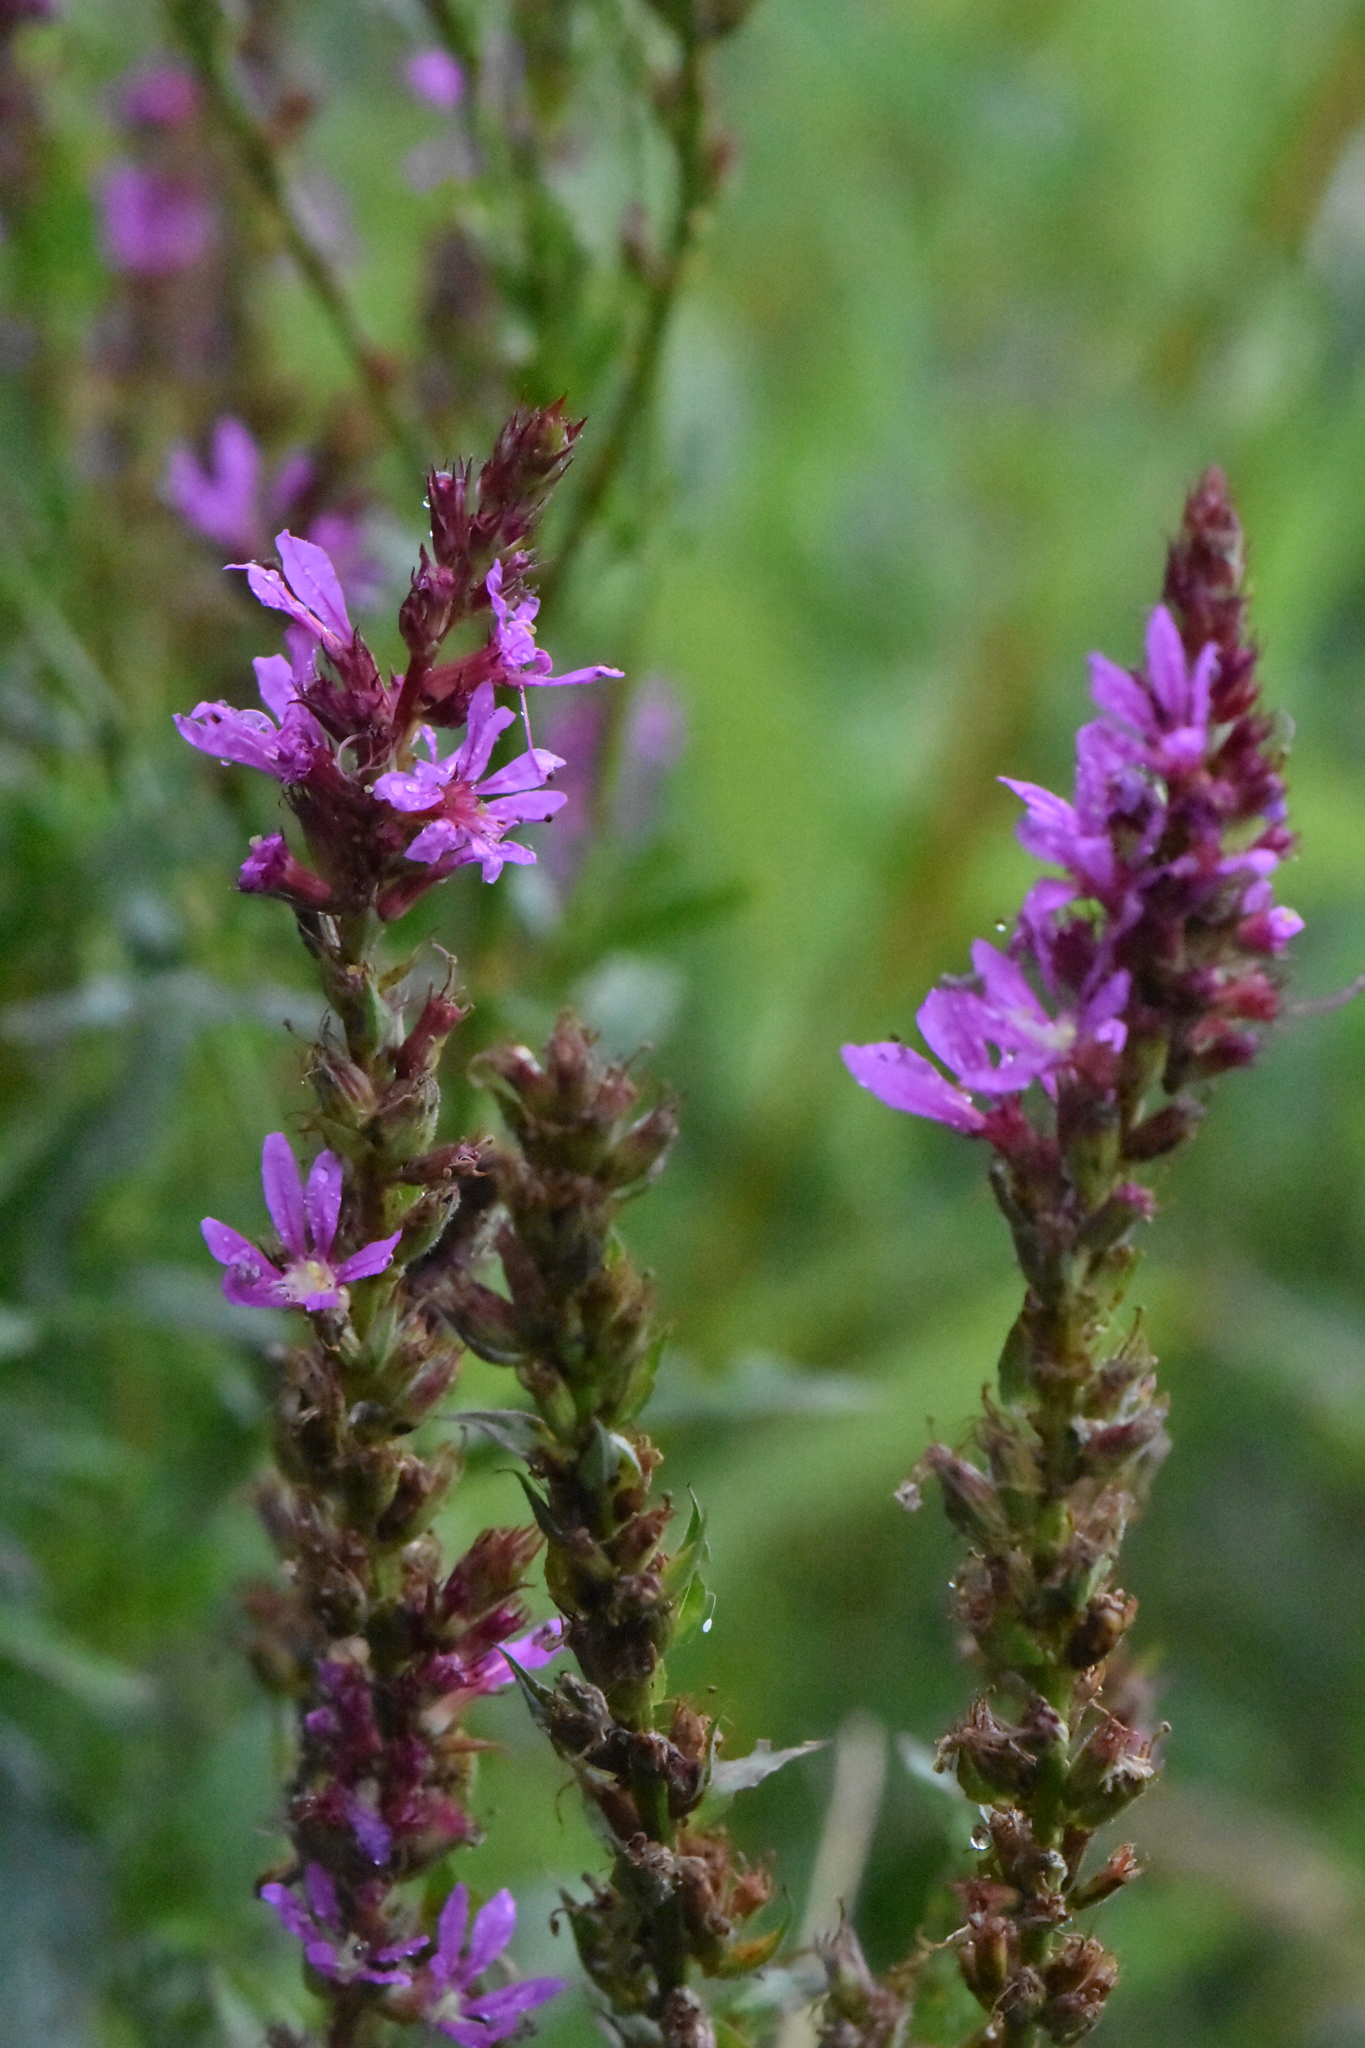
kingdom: Plantae
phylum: Tracheophyta
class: Magnoliopsida
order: Myrtales
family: Lythraceae
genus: Lythrum
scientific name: Lythrum salicaria
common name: Purple loosestrife
